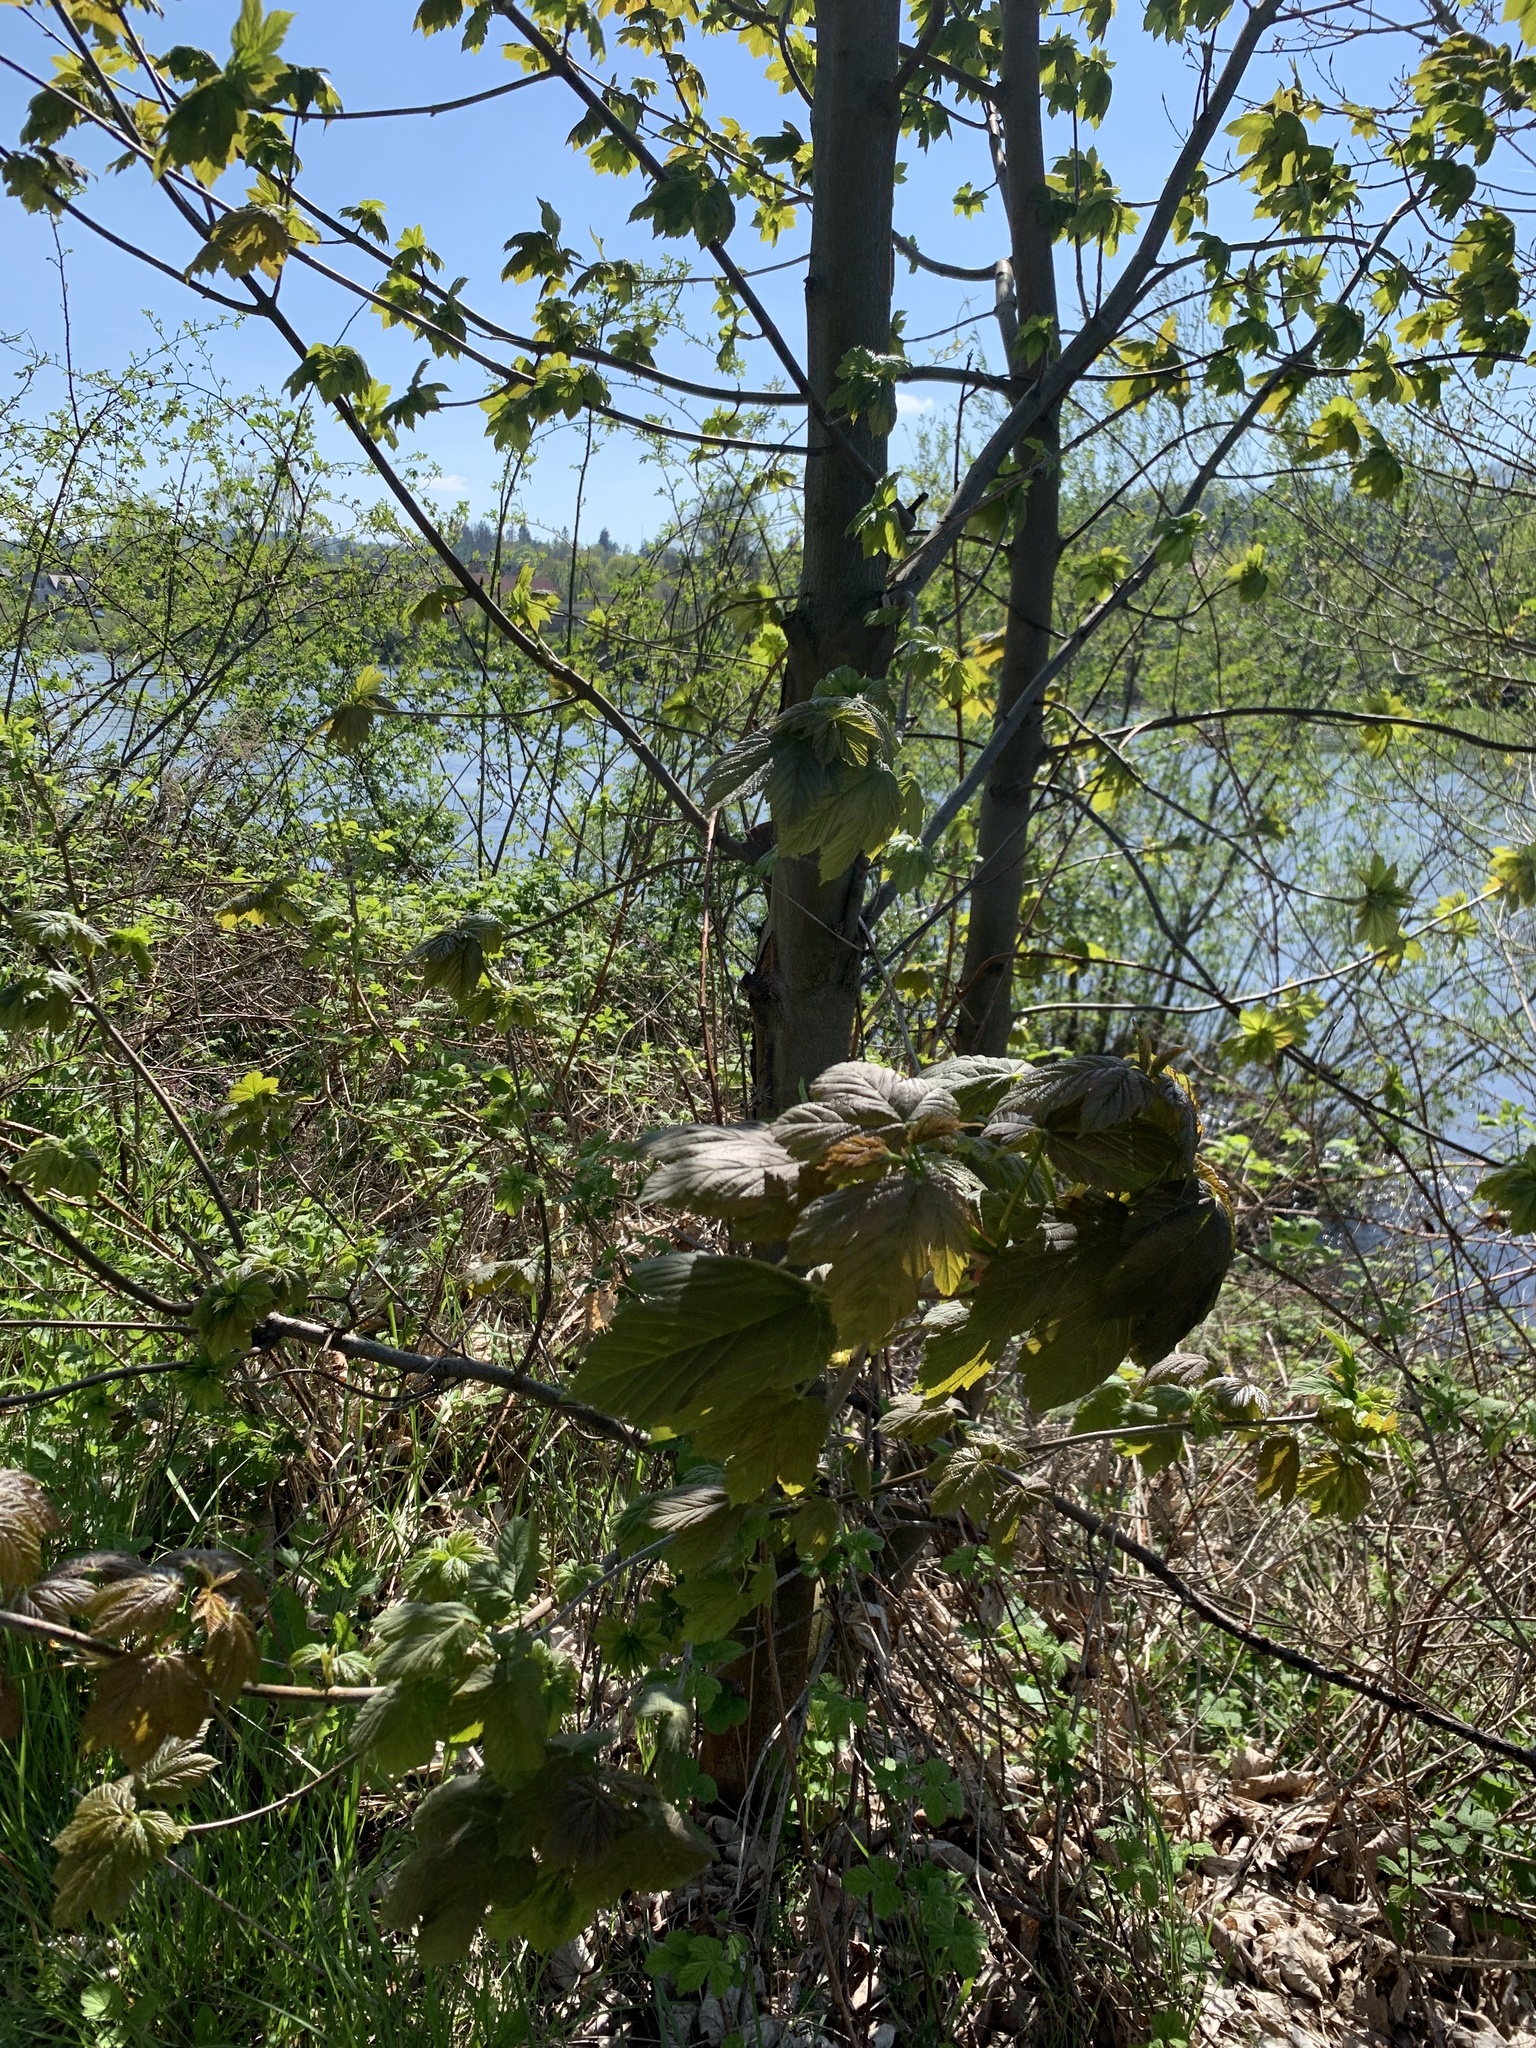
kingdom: Plantae
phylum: Tracheophyta
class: Magnoliopsida
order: Sapindales
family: Sapindaceae
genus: Acer
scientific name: Acer pseudoplatanus
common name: Sycamore
